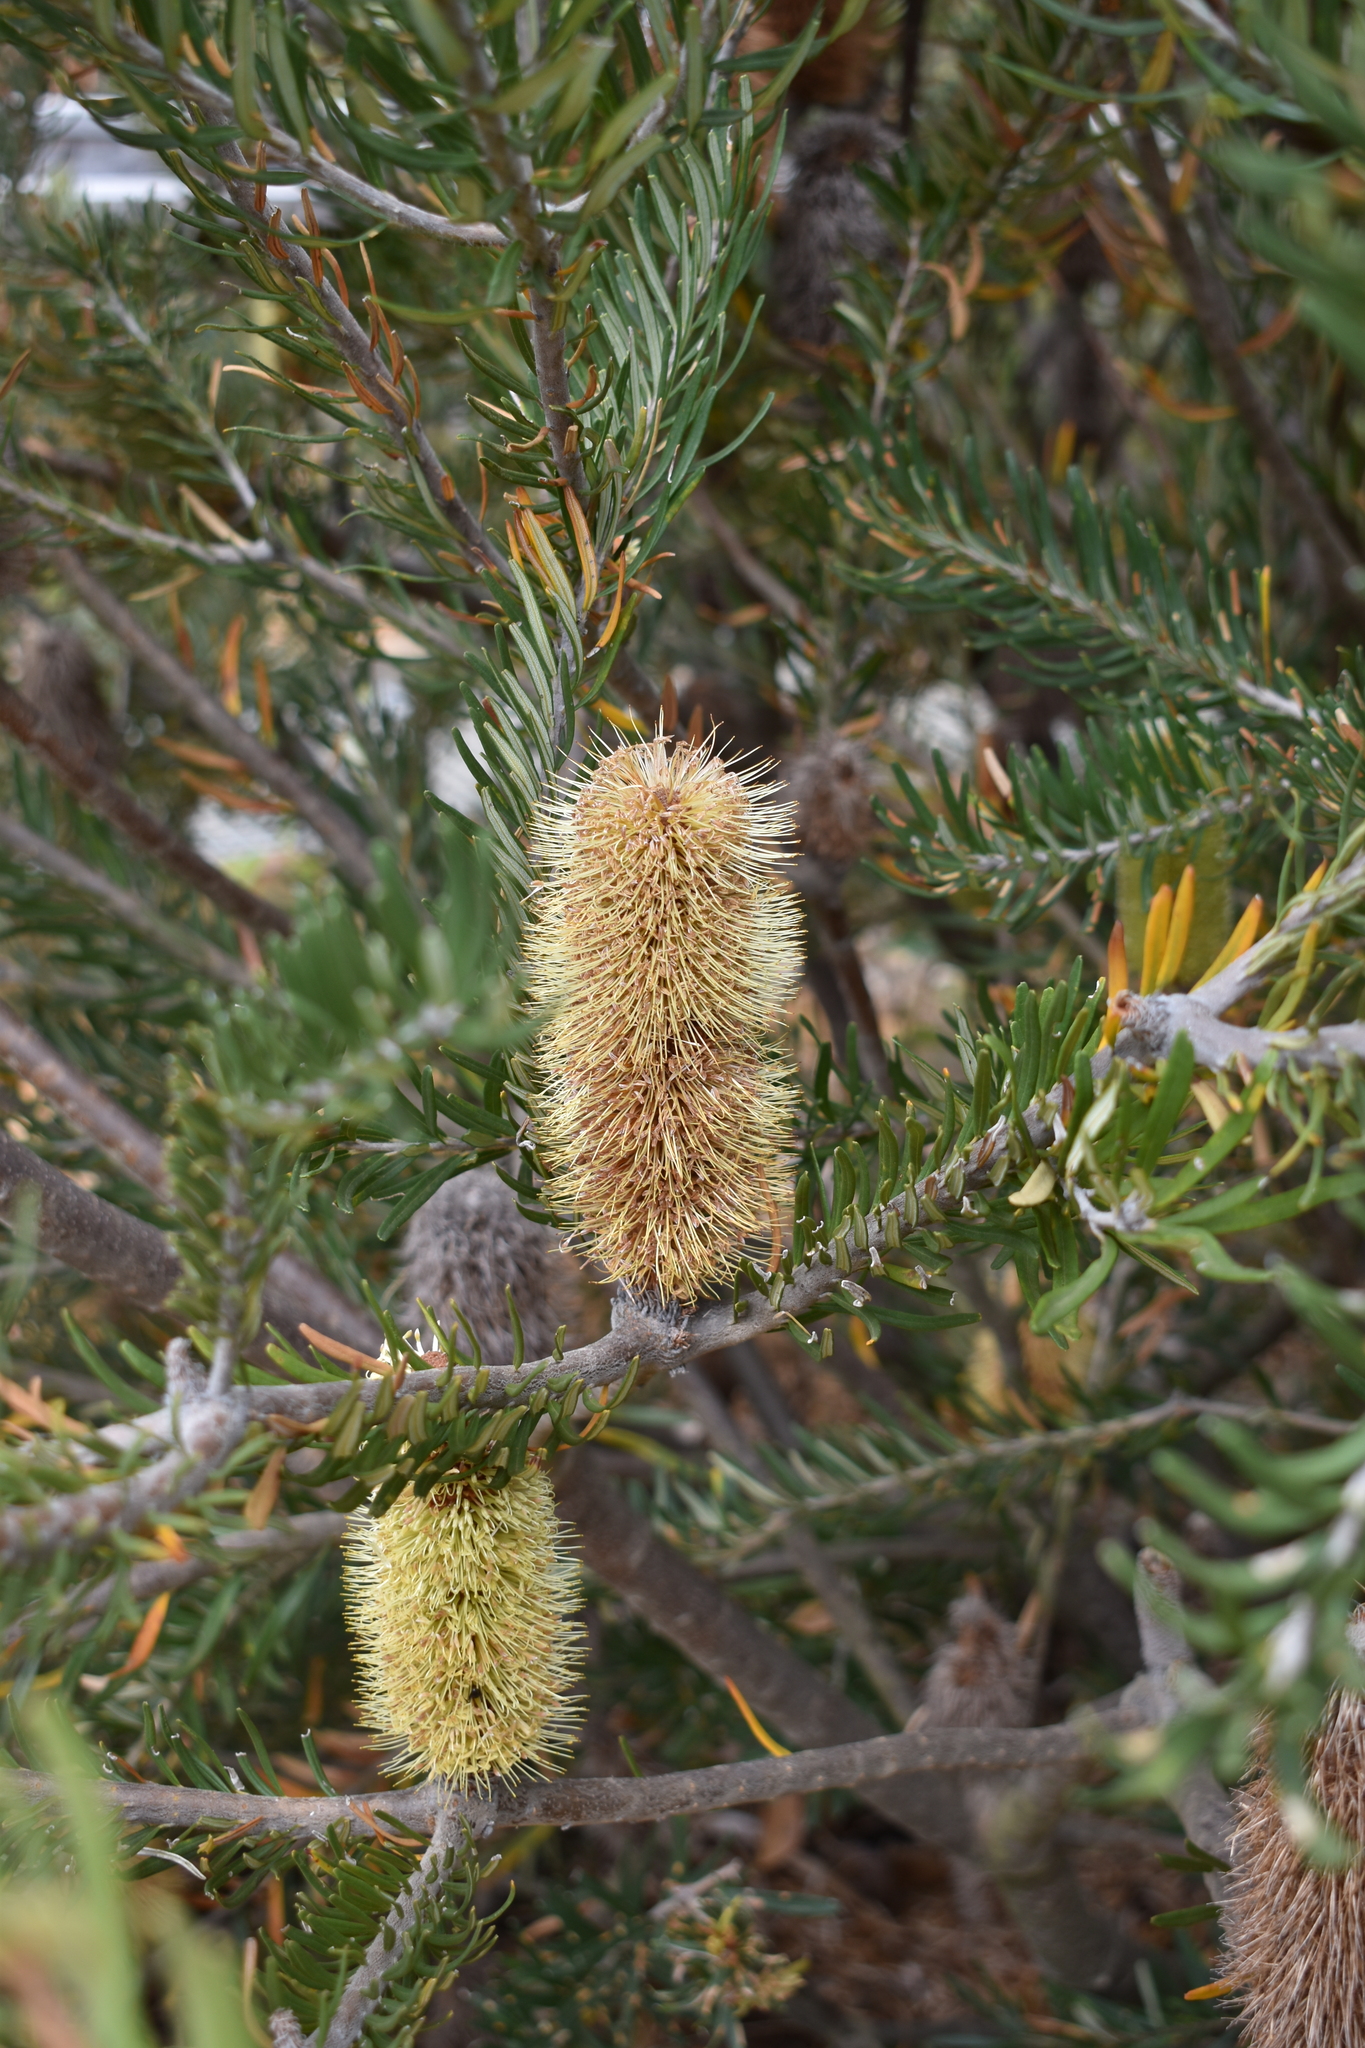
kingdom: Plantae
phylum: Tracheophyta
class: Magnoliopsida
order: Proteales
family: Proteaceae
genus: Banksia
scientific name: Banksia marginata
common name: Silver banksia
